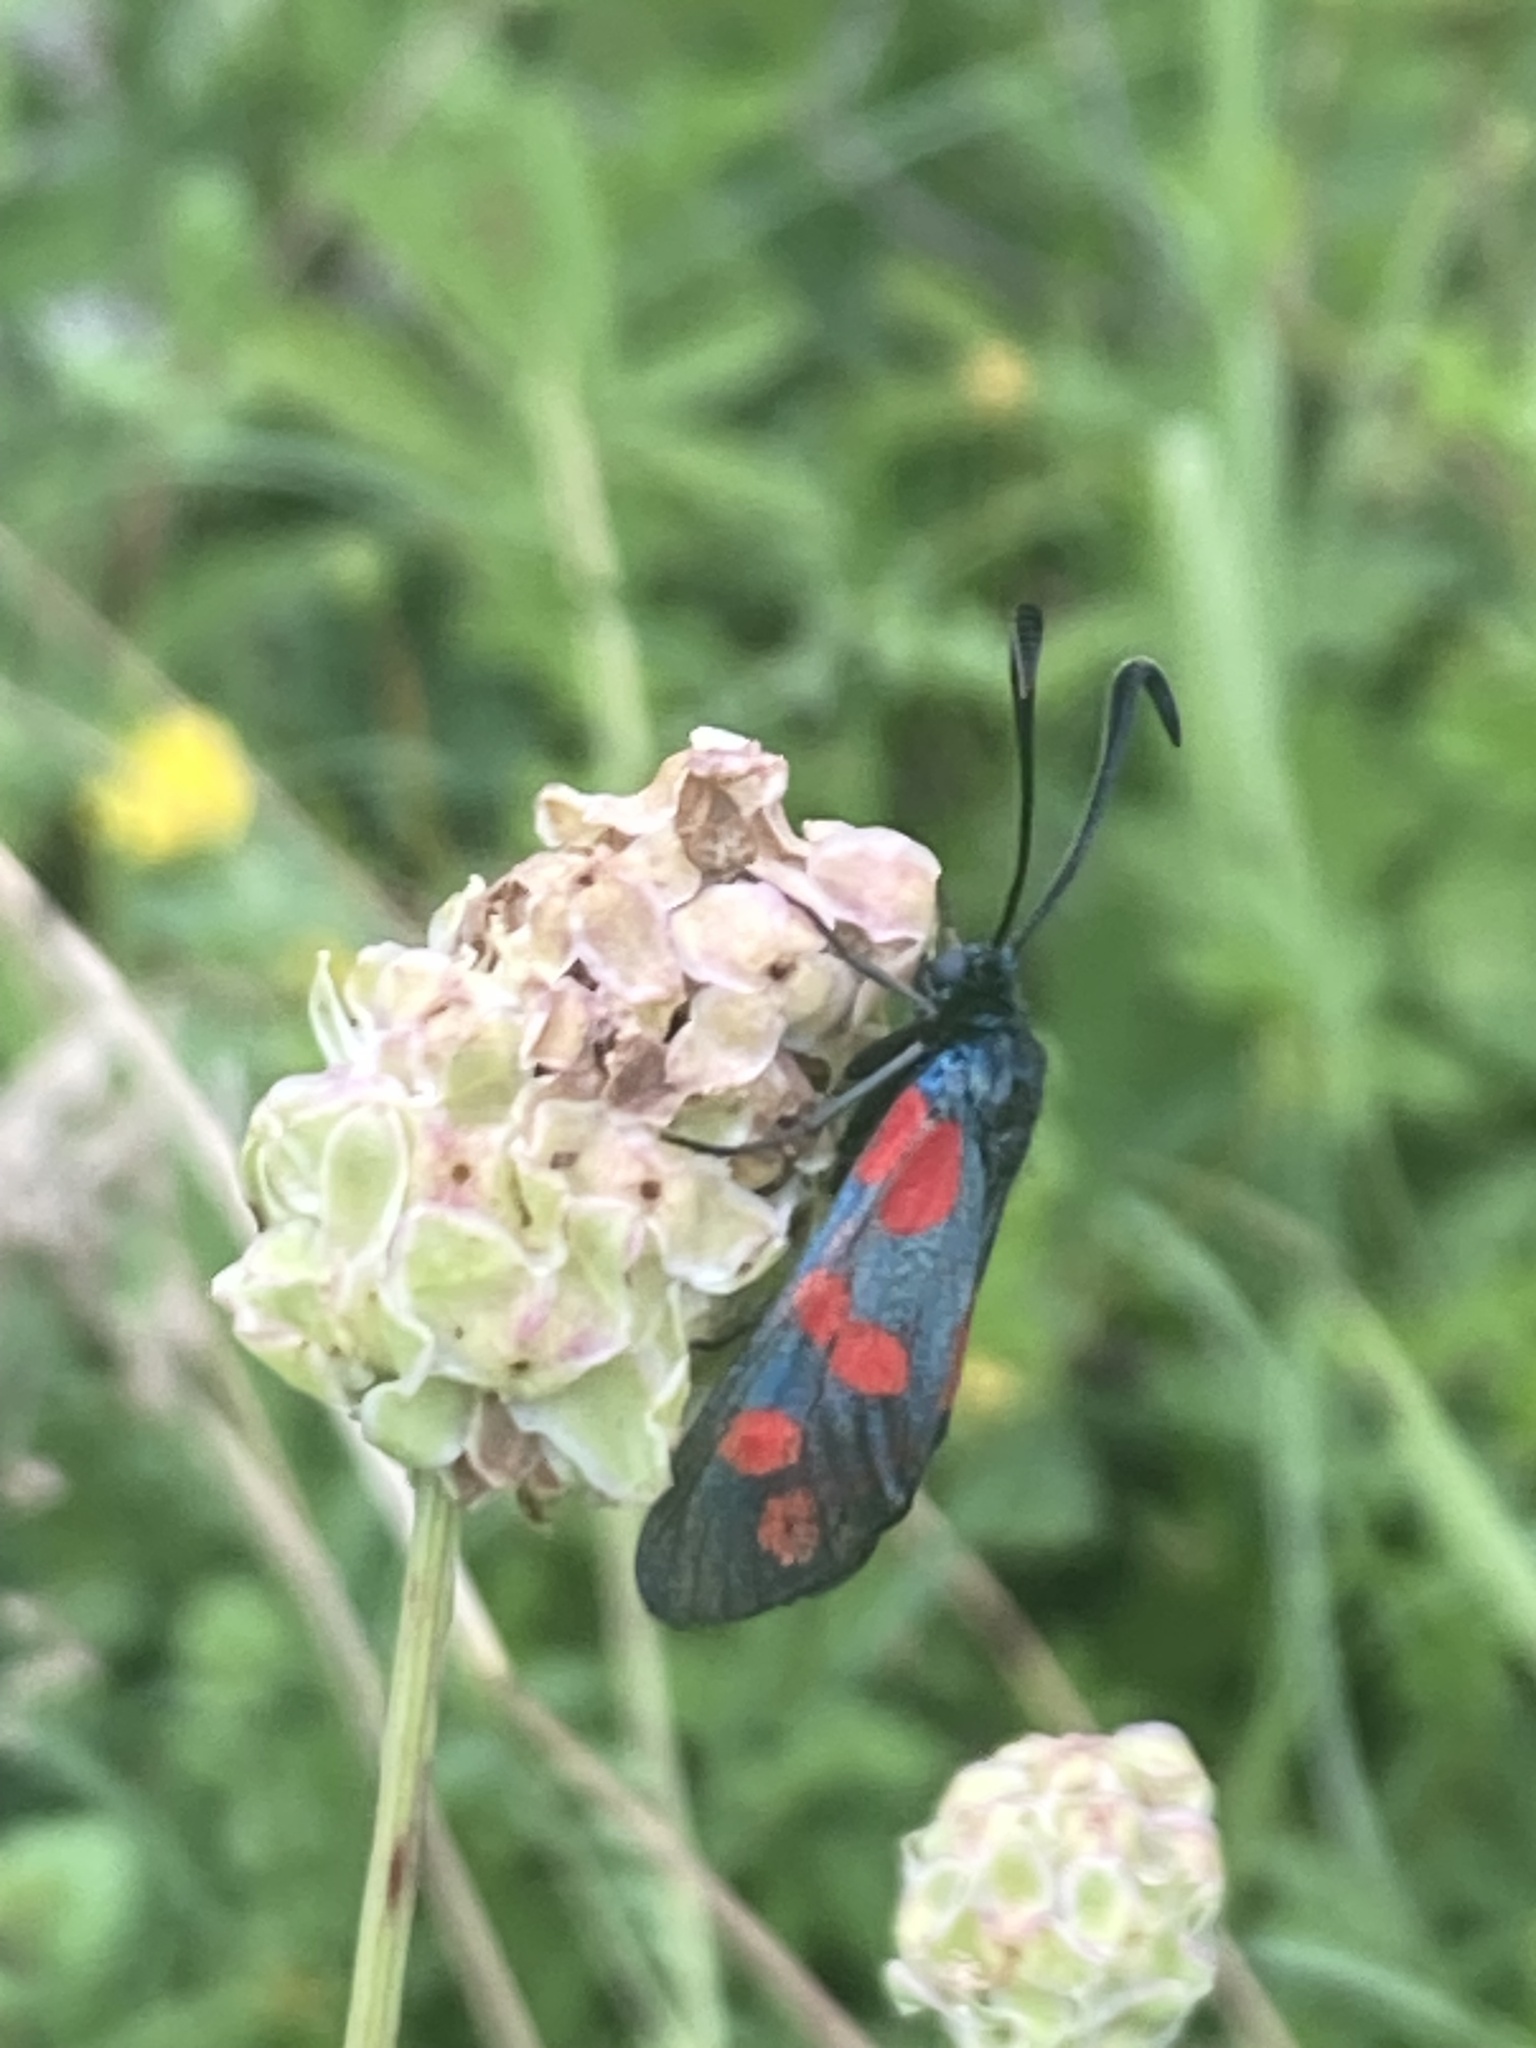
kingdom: Animalia
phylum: Arthropoda
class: Insecta
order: Lepidoptera
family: Zygaenidae
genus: Zygaena
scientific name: Zygaena filipendulae
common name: Six-spot burnet
